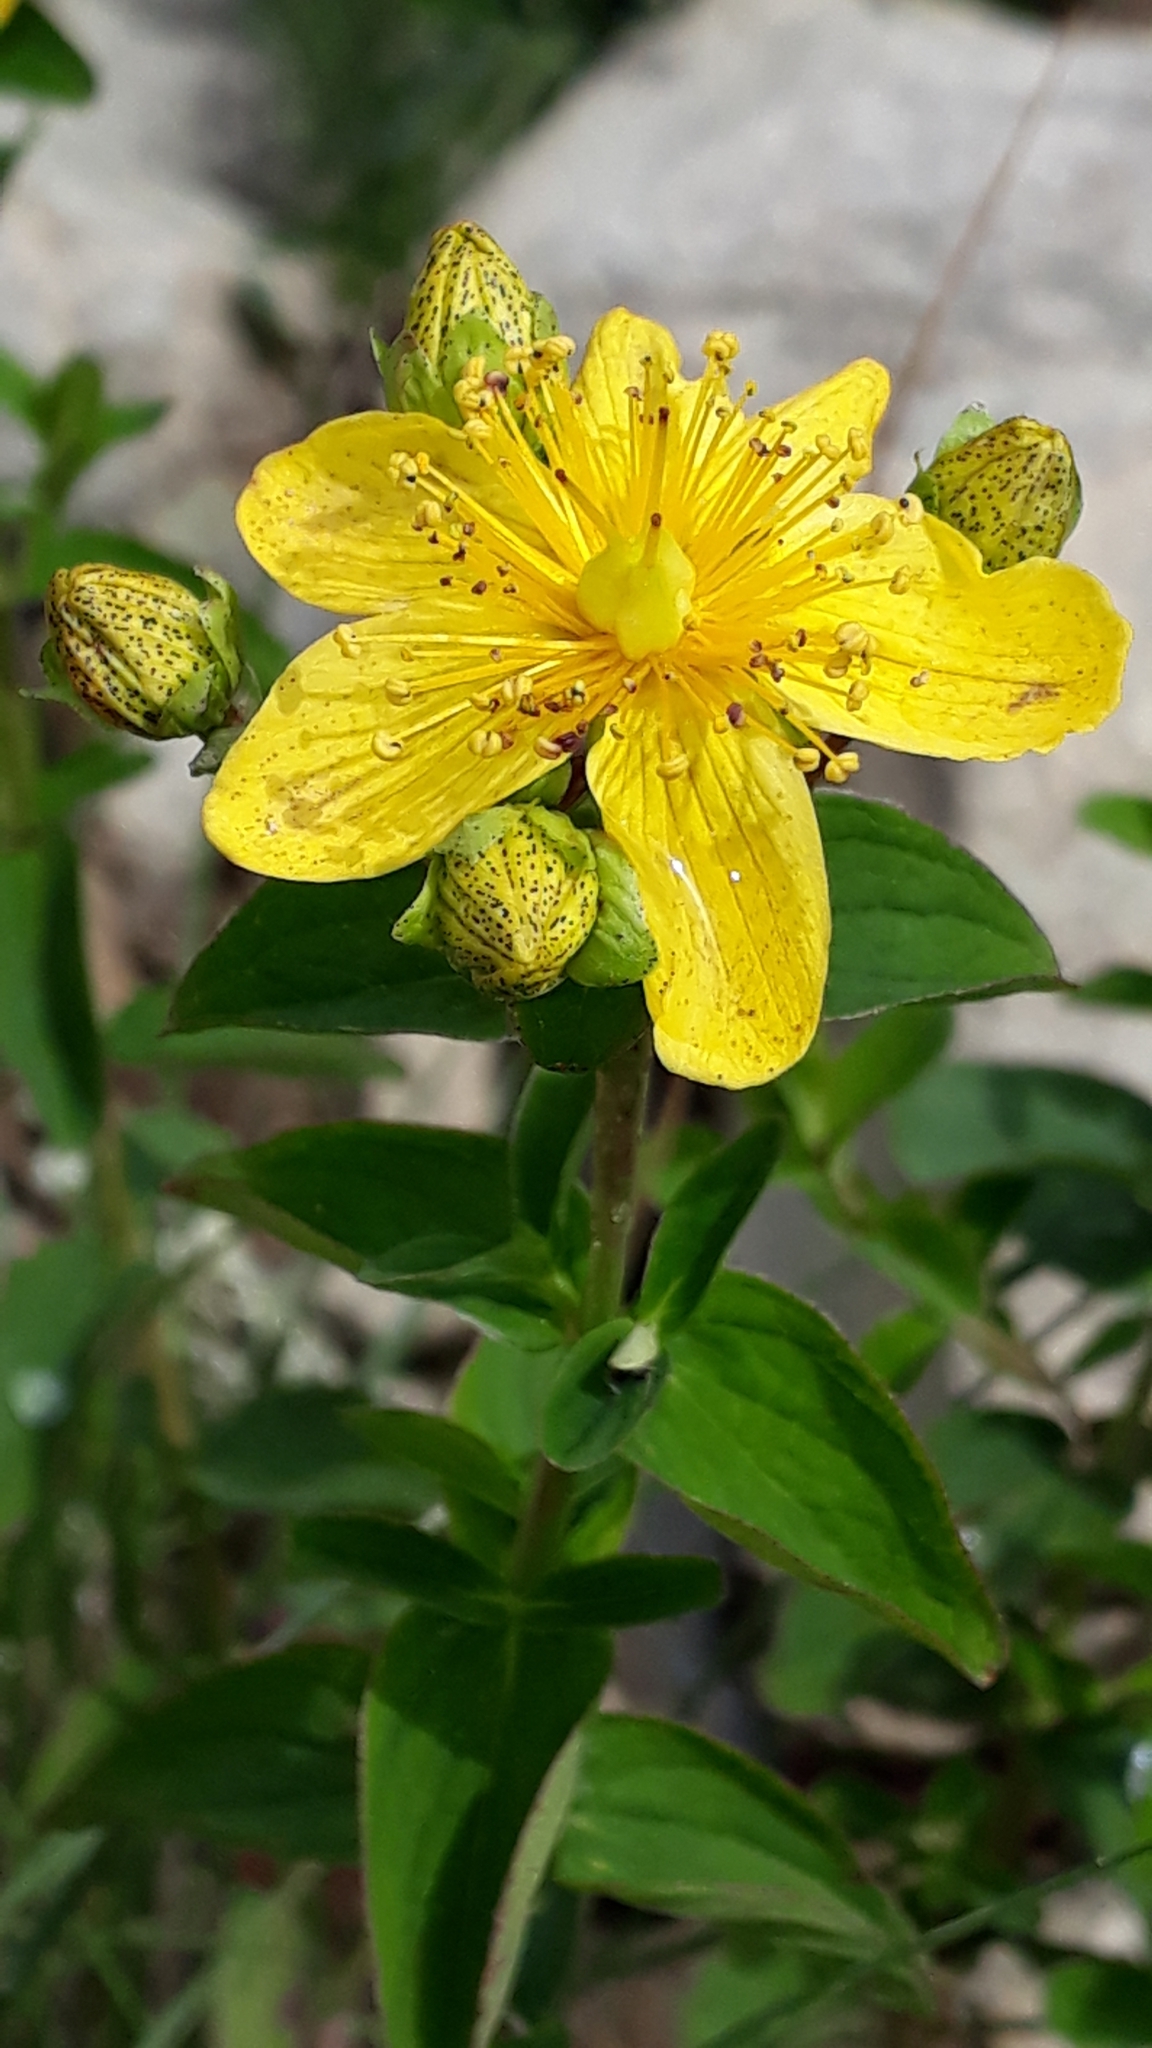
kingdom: Plantae
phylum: Tracheophyta
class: Magnoliopsida
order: Malpighiales
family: Hypericaceae
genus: Hypericum
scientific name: Hypericum maculatum
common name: Imperforate st. john's-wort
